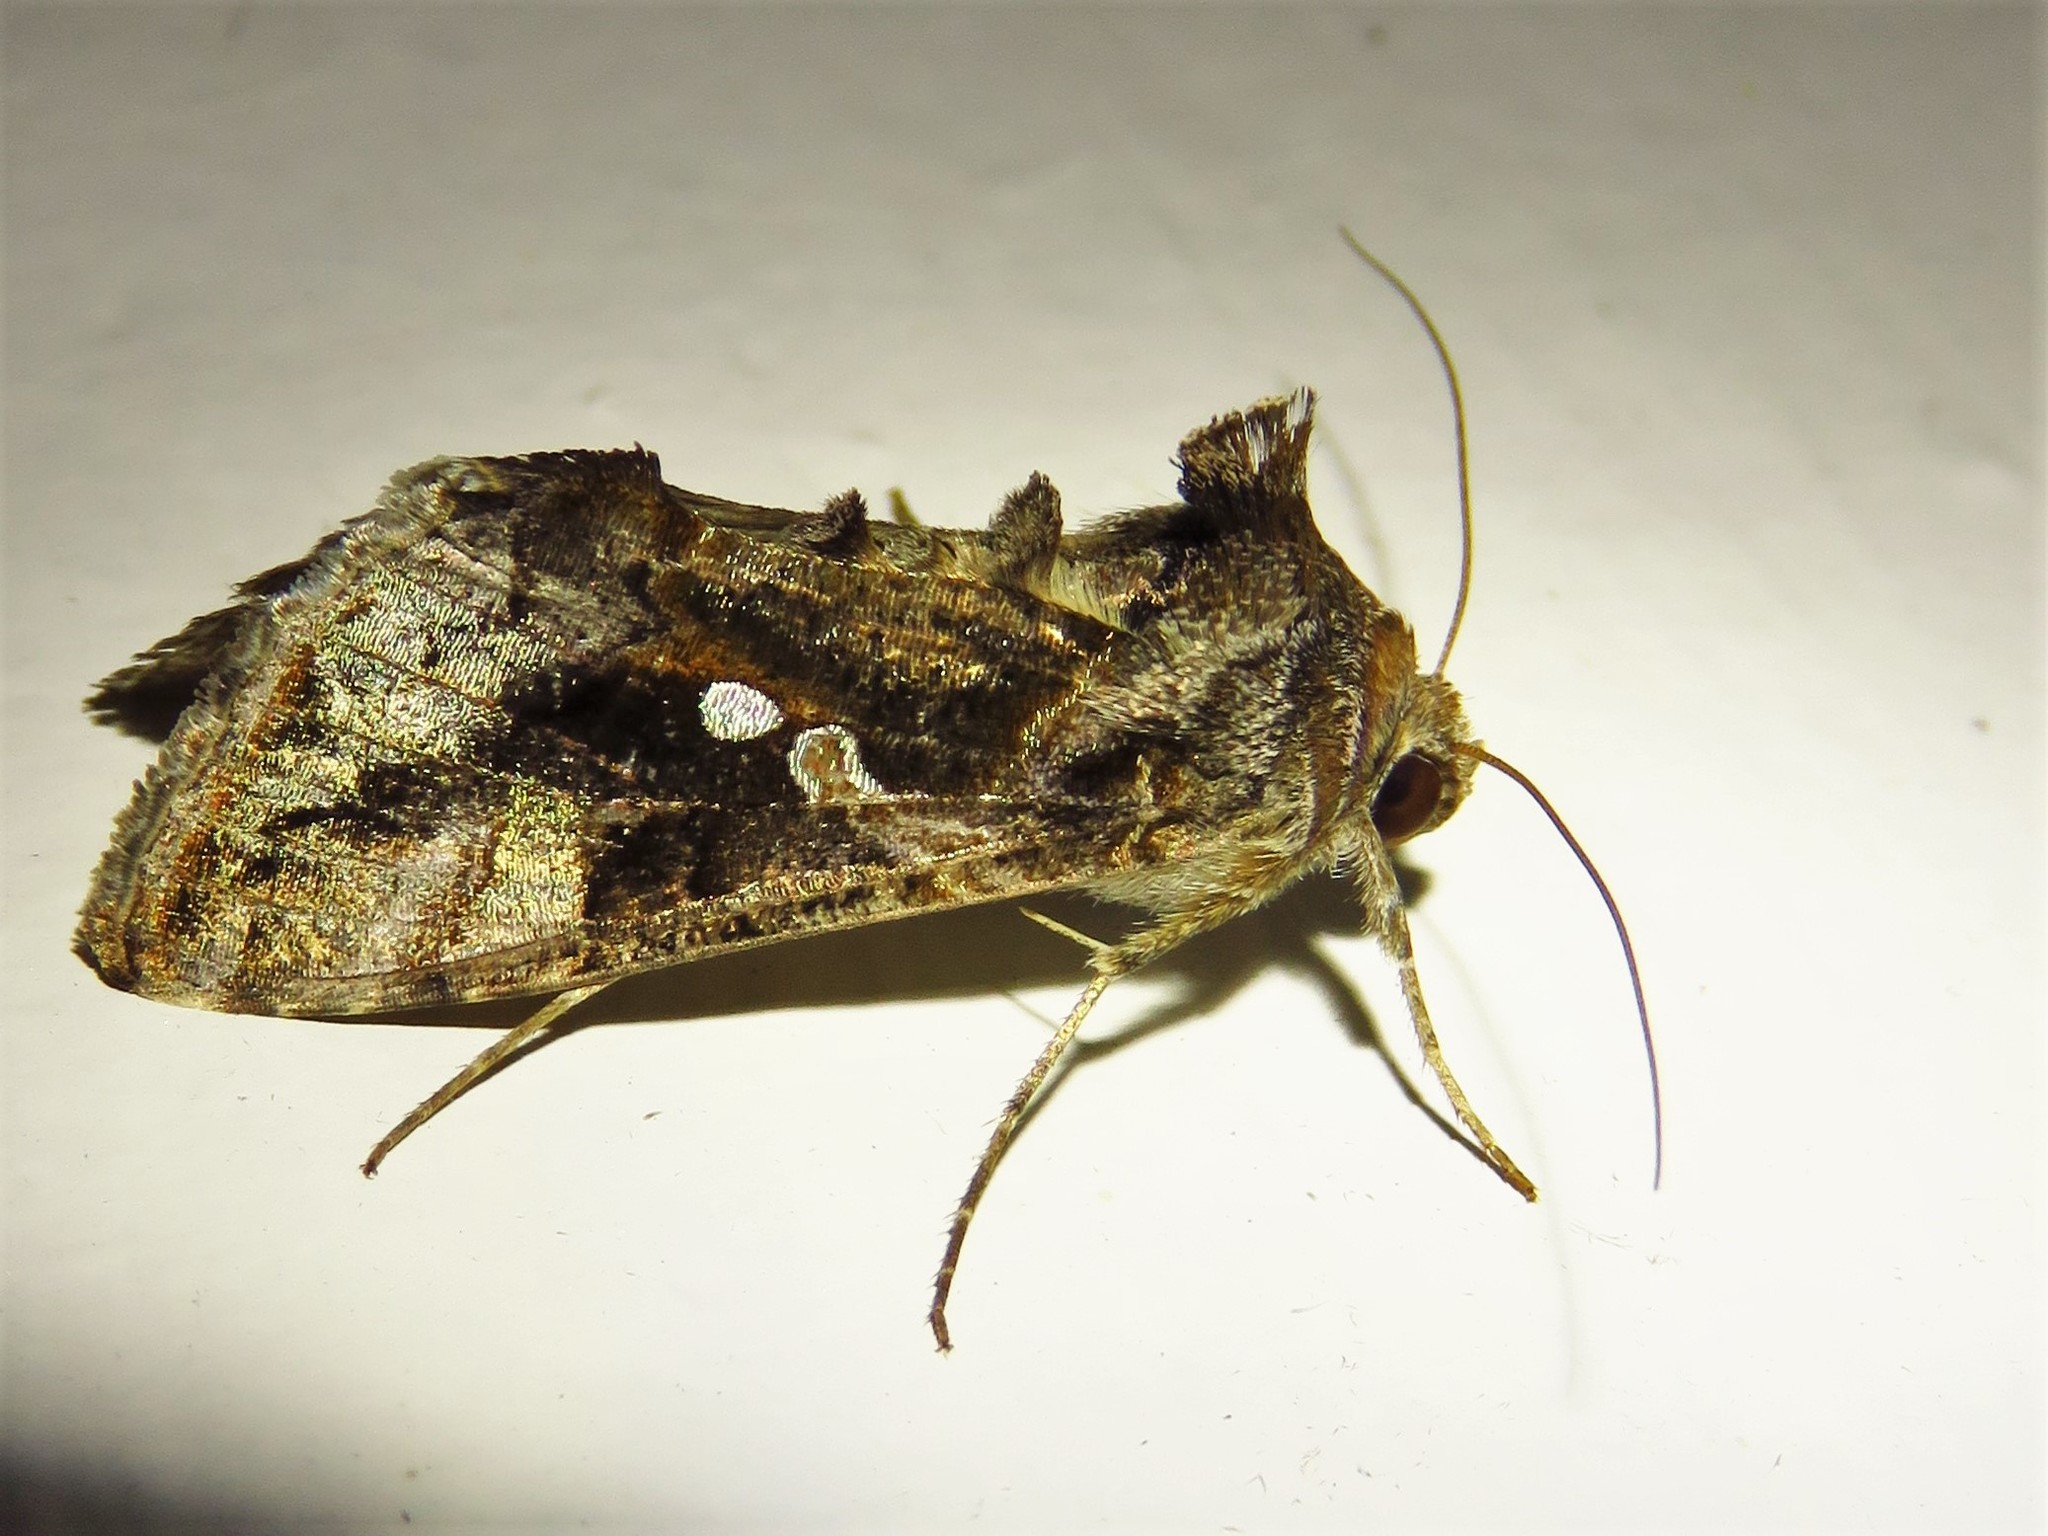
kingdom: Animalia
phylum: Arthropoda
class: Insecta
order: Lepidoptera
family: Noctuidae
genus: Chrysodeixis
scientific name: Chrysodeixis includens
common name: Cutworm moth
